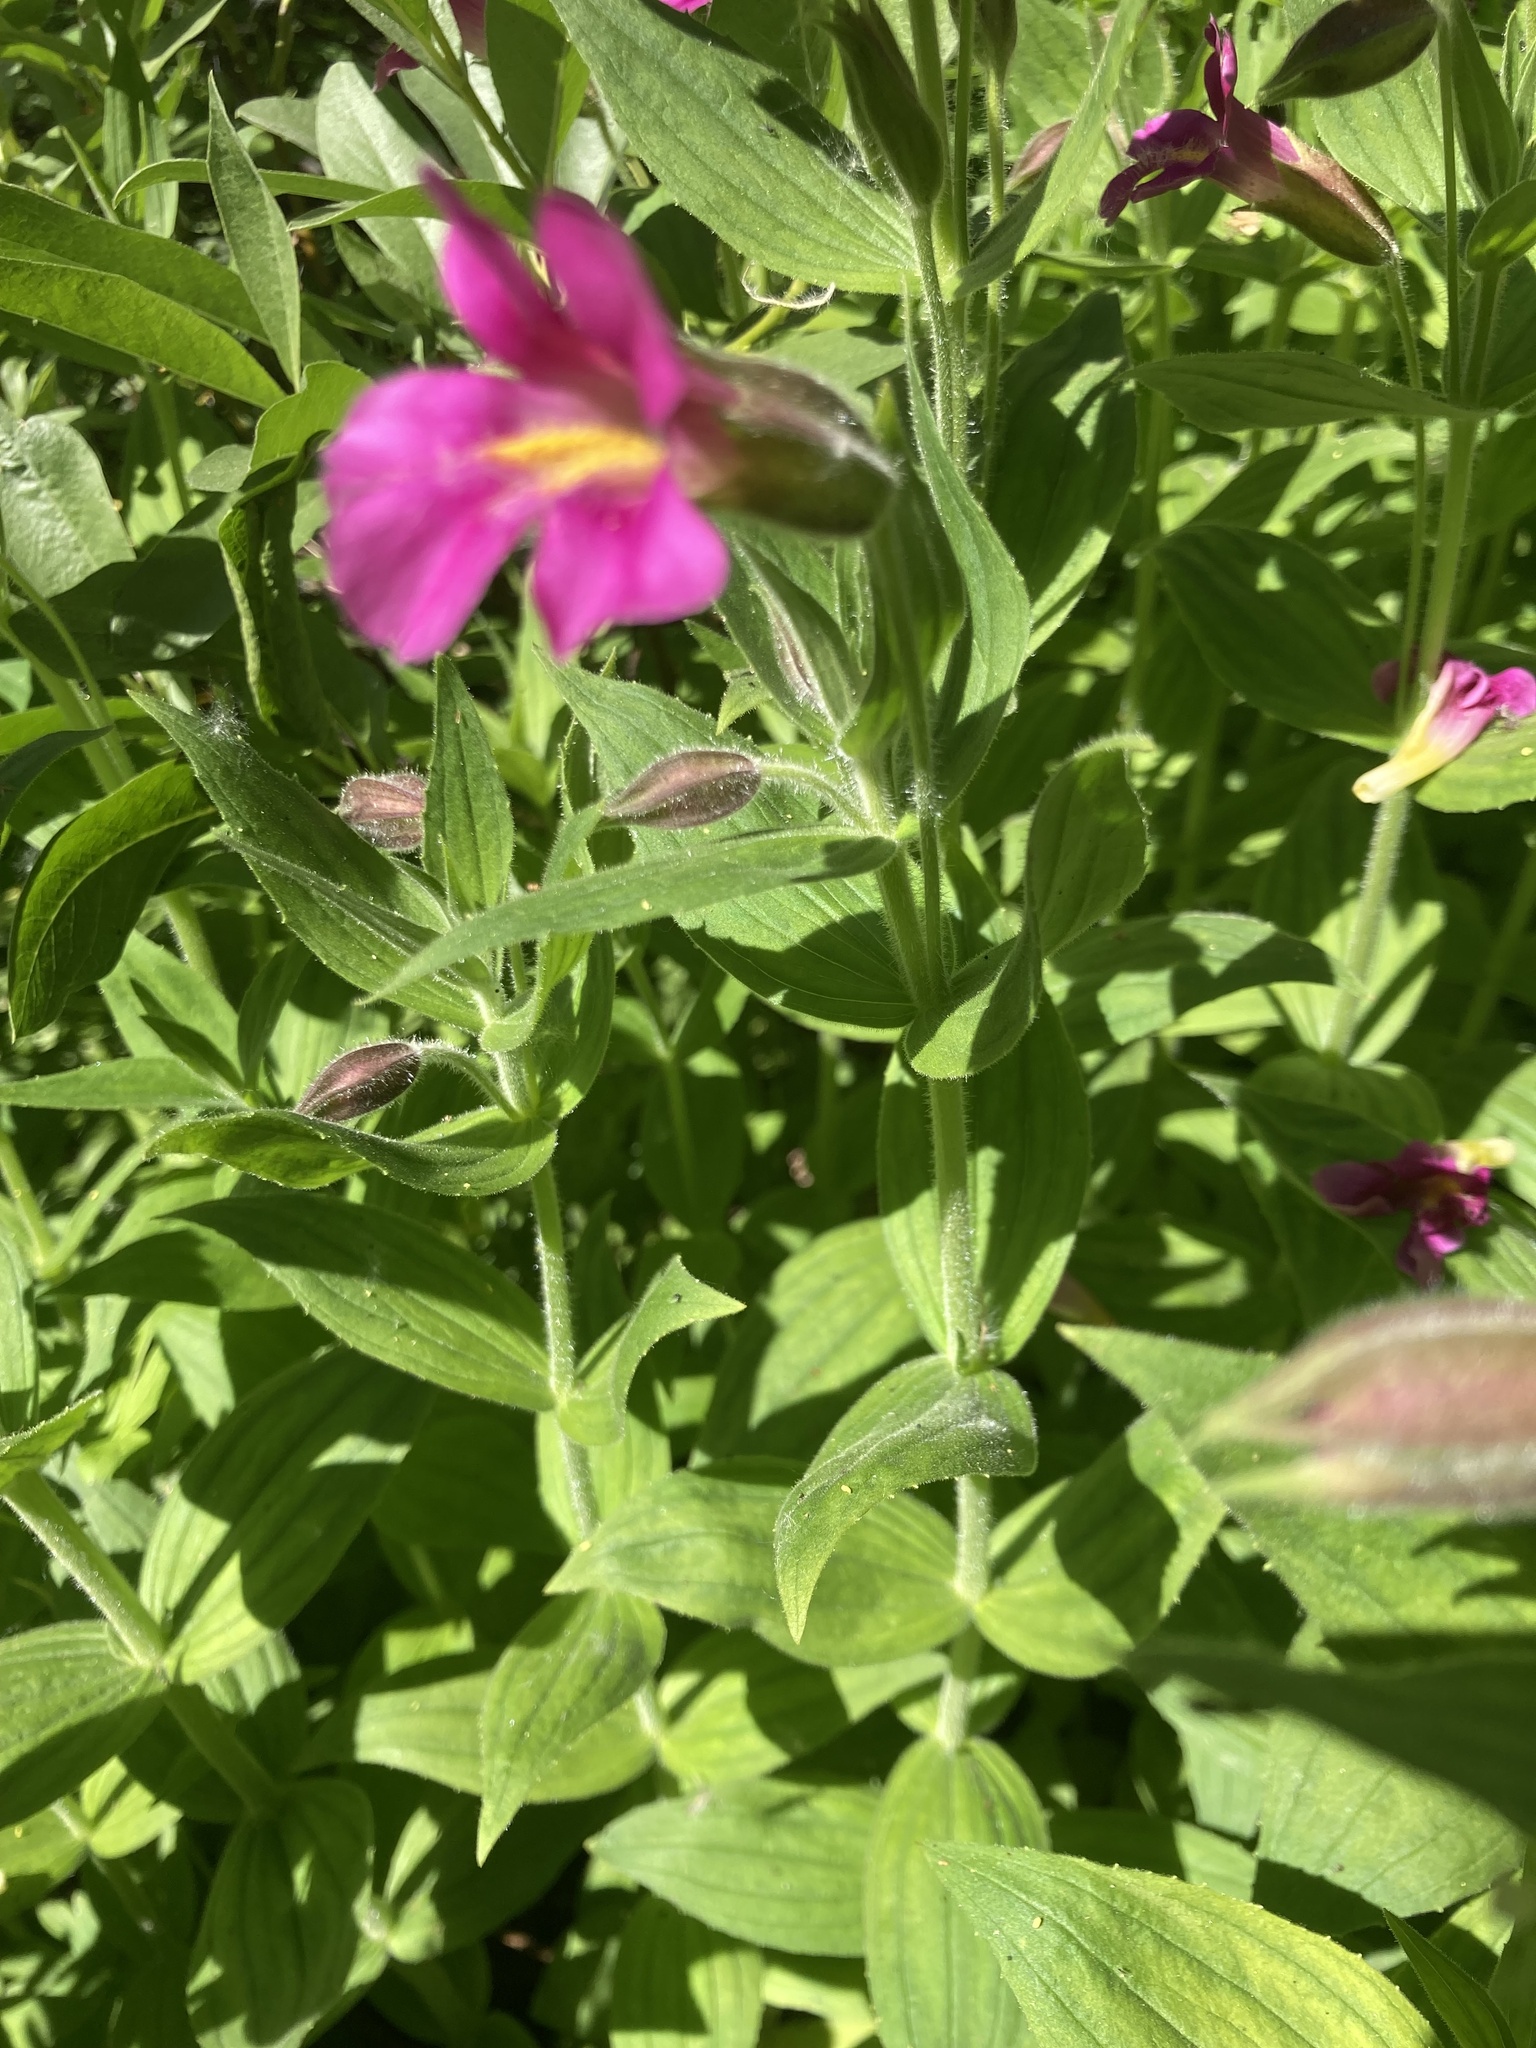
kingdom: Plantae
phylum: Tracheophyta
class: Magnoliopsida
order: Lamiales
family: Phrymaceae
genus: Erythranthe
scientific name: Erythranthe lewisii
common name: Lewis's monkey-flower
